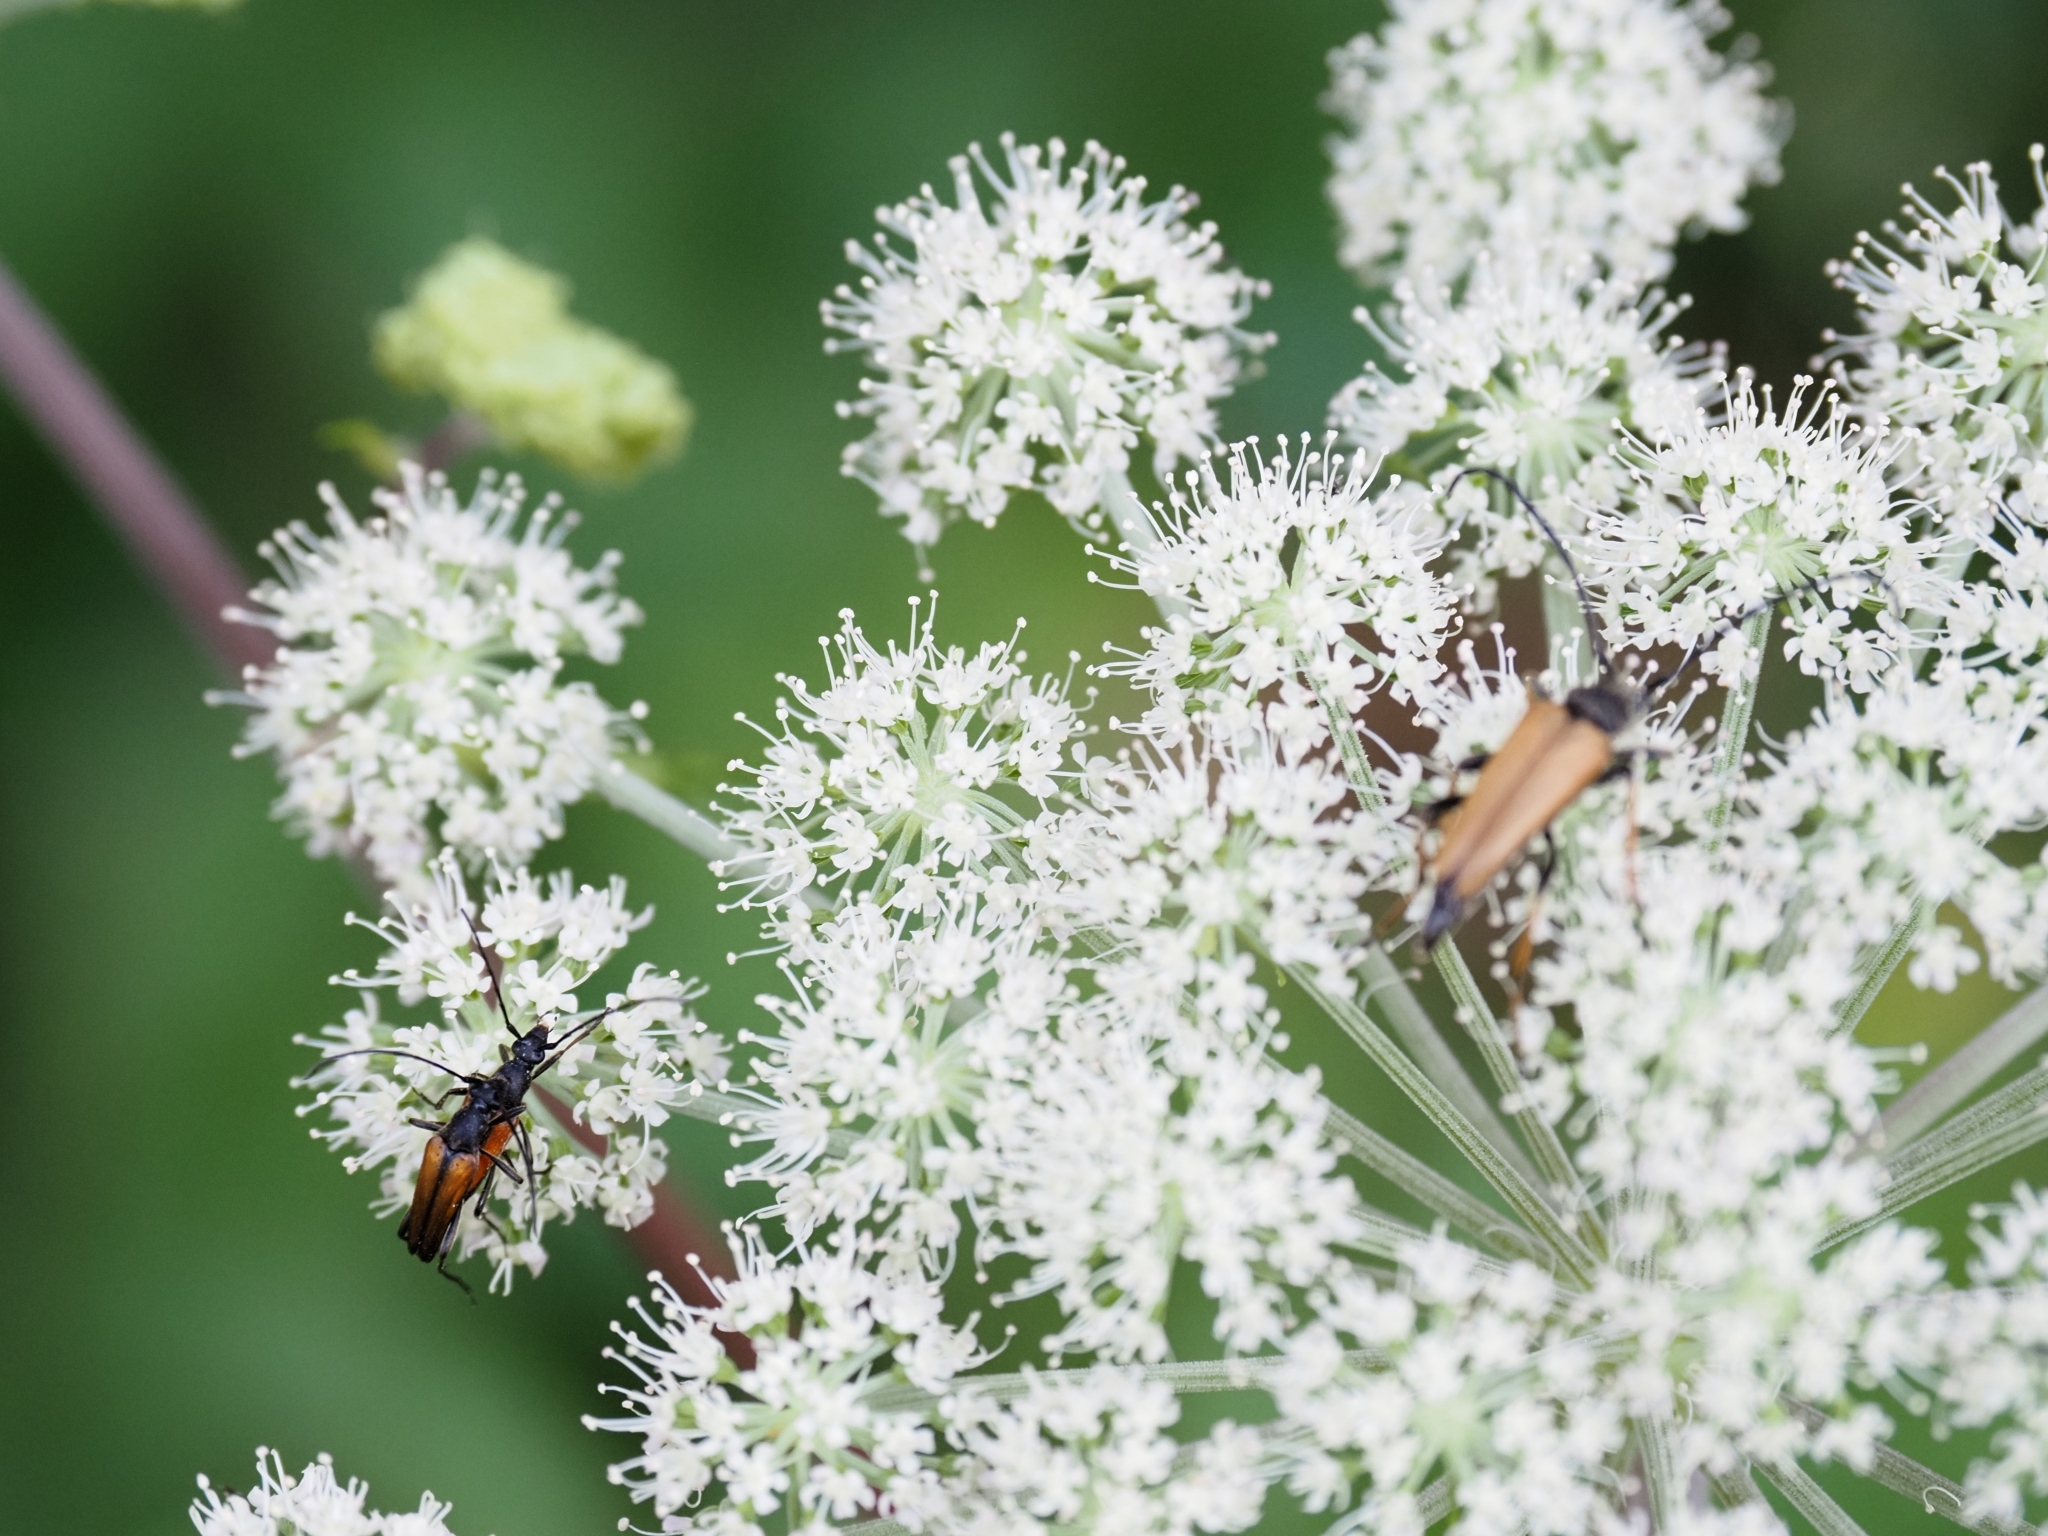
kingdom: Animalia
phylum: Arthropoda
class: Insecta
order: Coleoptera
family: Cerambycidae
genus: Stenurella
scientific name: Stenurella melanura
